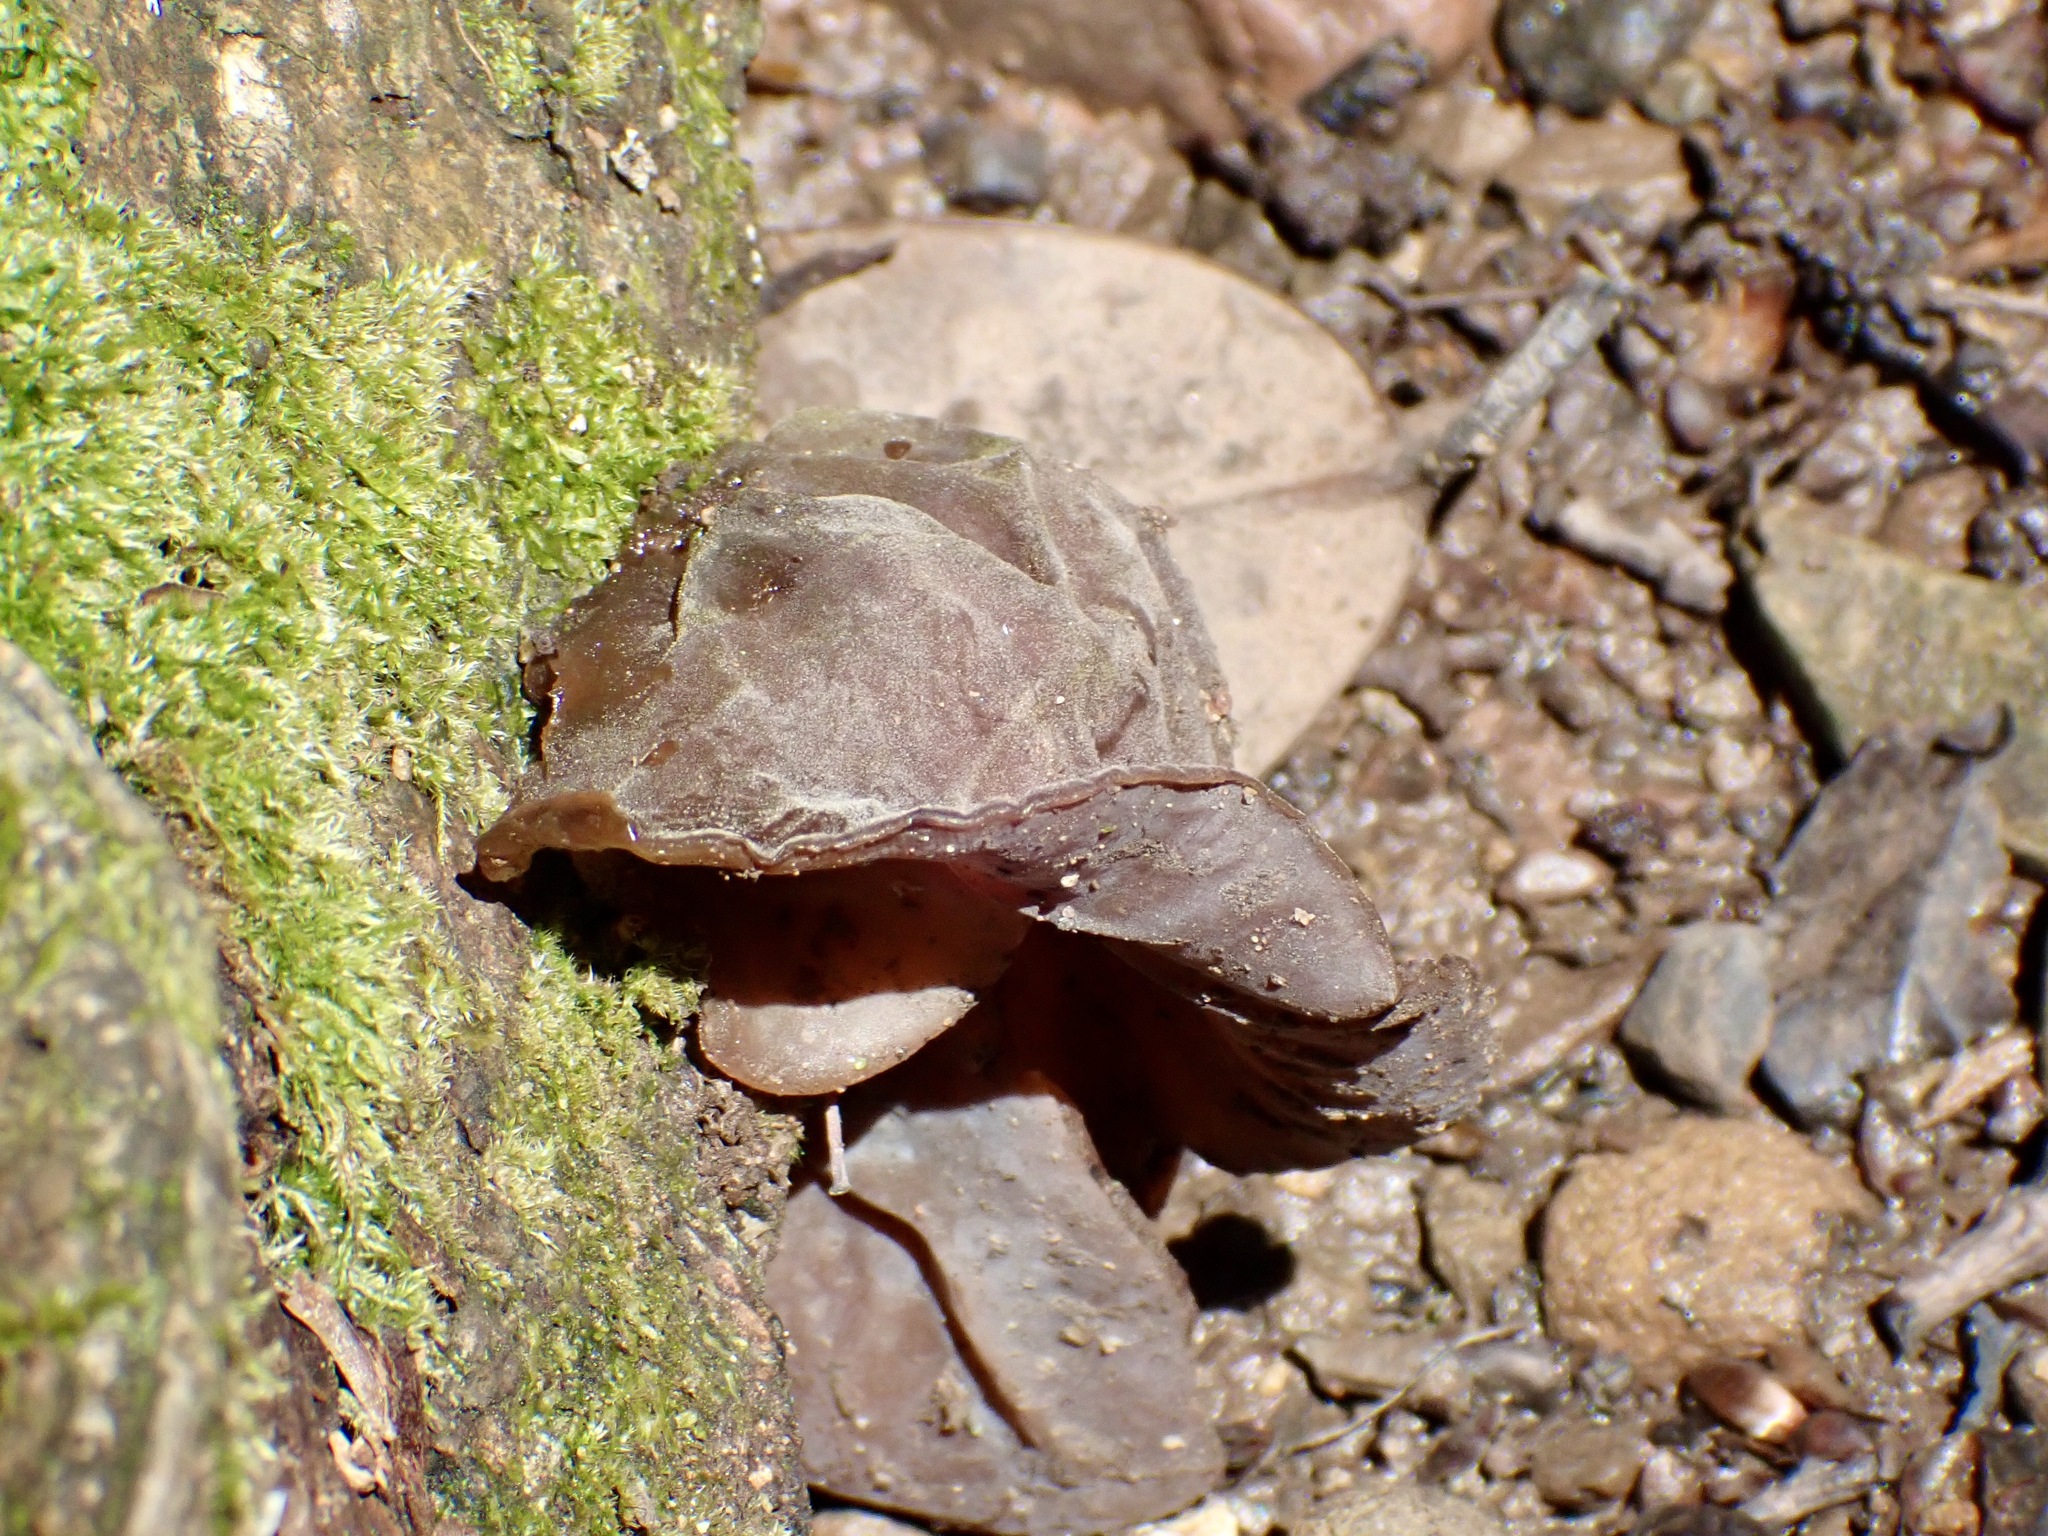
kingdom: Fungi
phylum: Basidiomycota
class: Agaricomycetes
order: Auriculariales
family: Auriculariaceae
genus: Auricularia
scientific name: Auricularia auricula-judae
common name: Jelly ear
